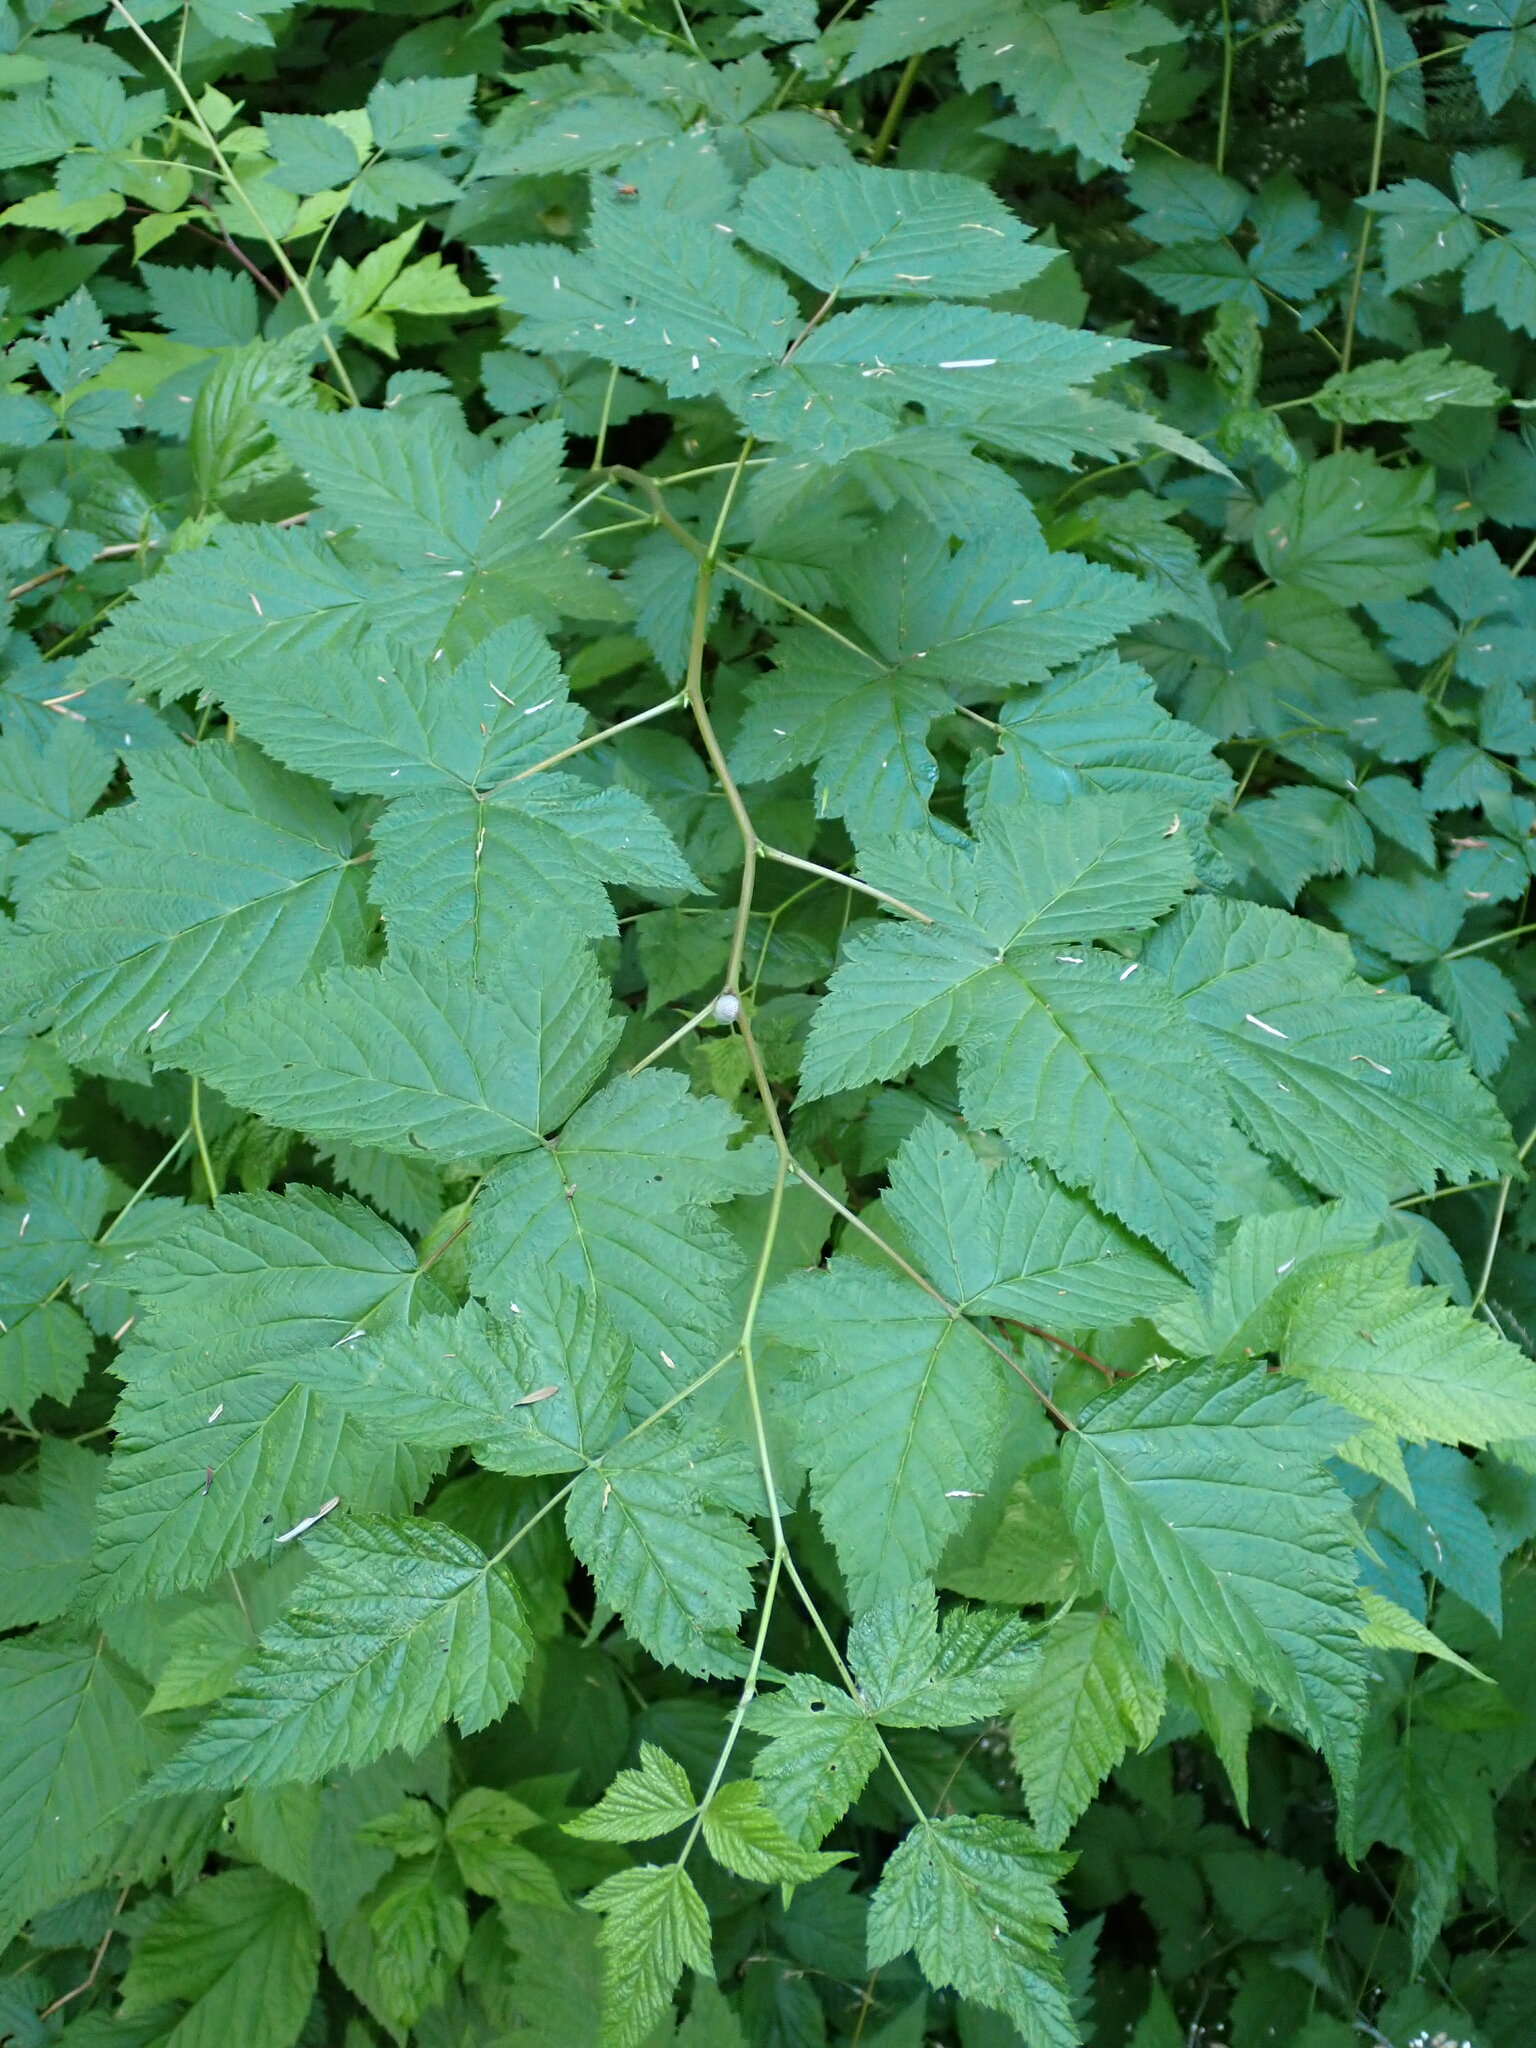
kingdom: Plantae
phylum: Tracheophyta
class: Magnoliopsida
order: Rosales
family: Rosaceae
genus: Rubus
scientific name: Rubus spectabilis
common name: Salmonberry
